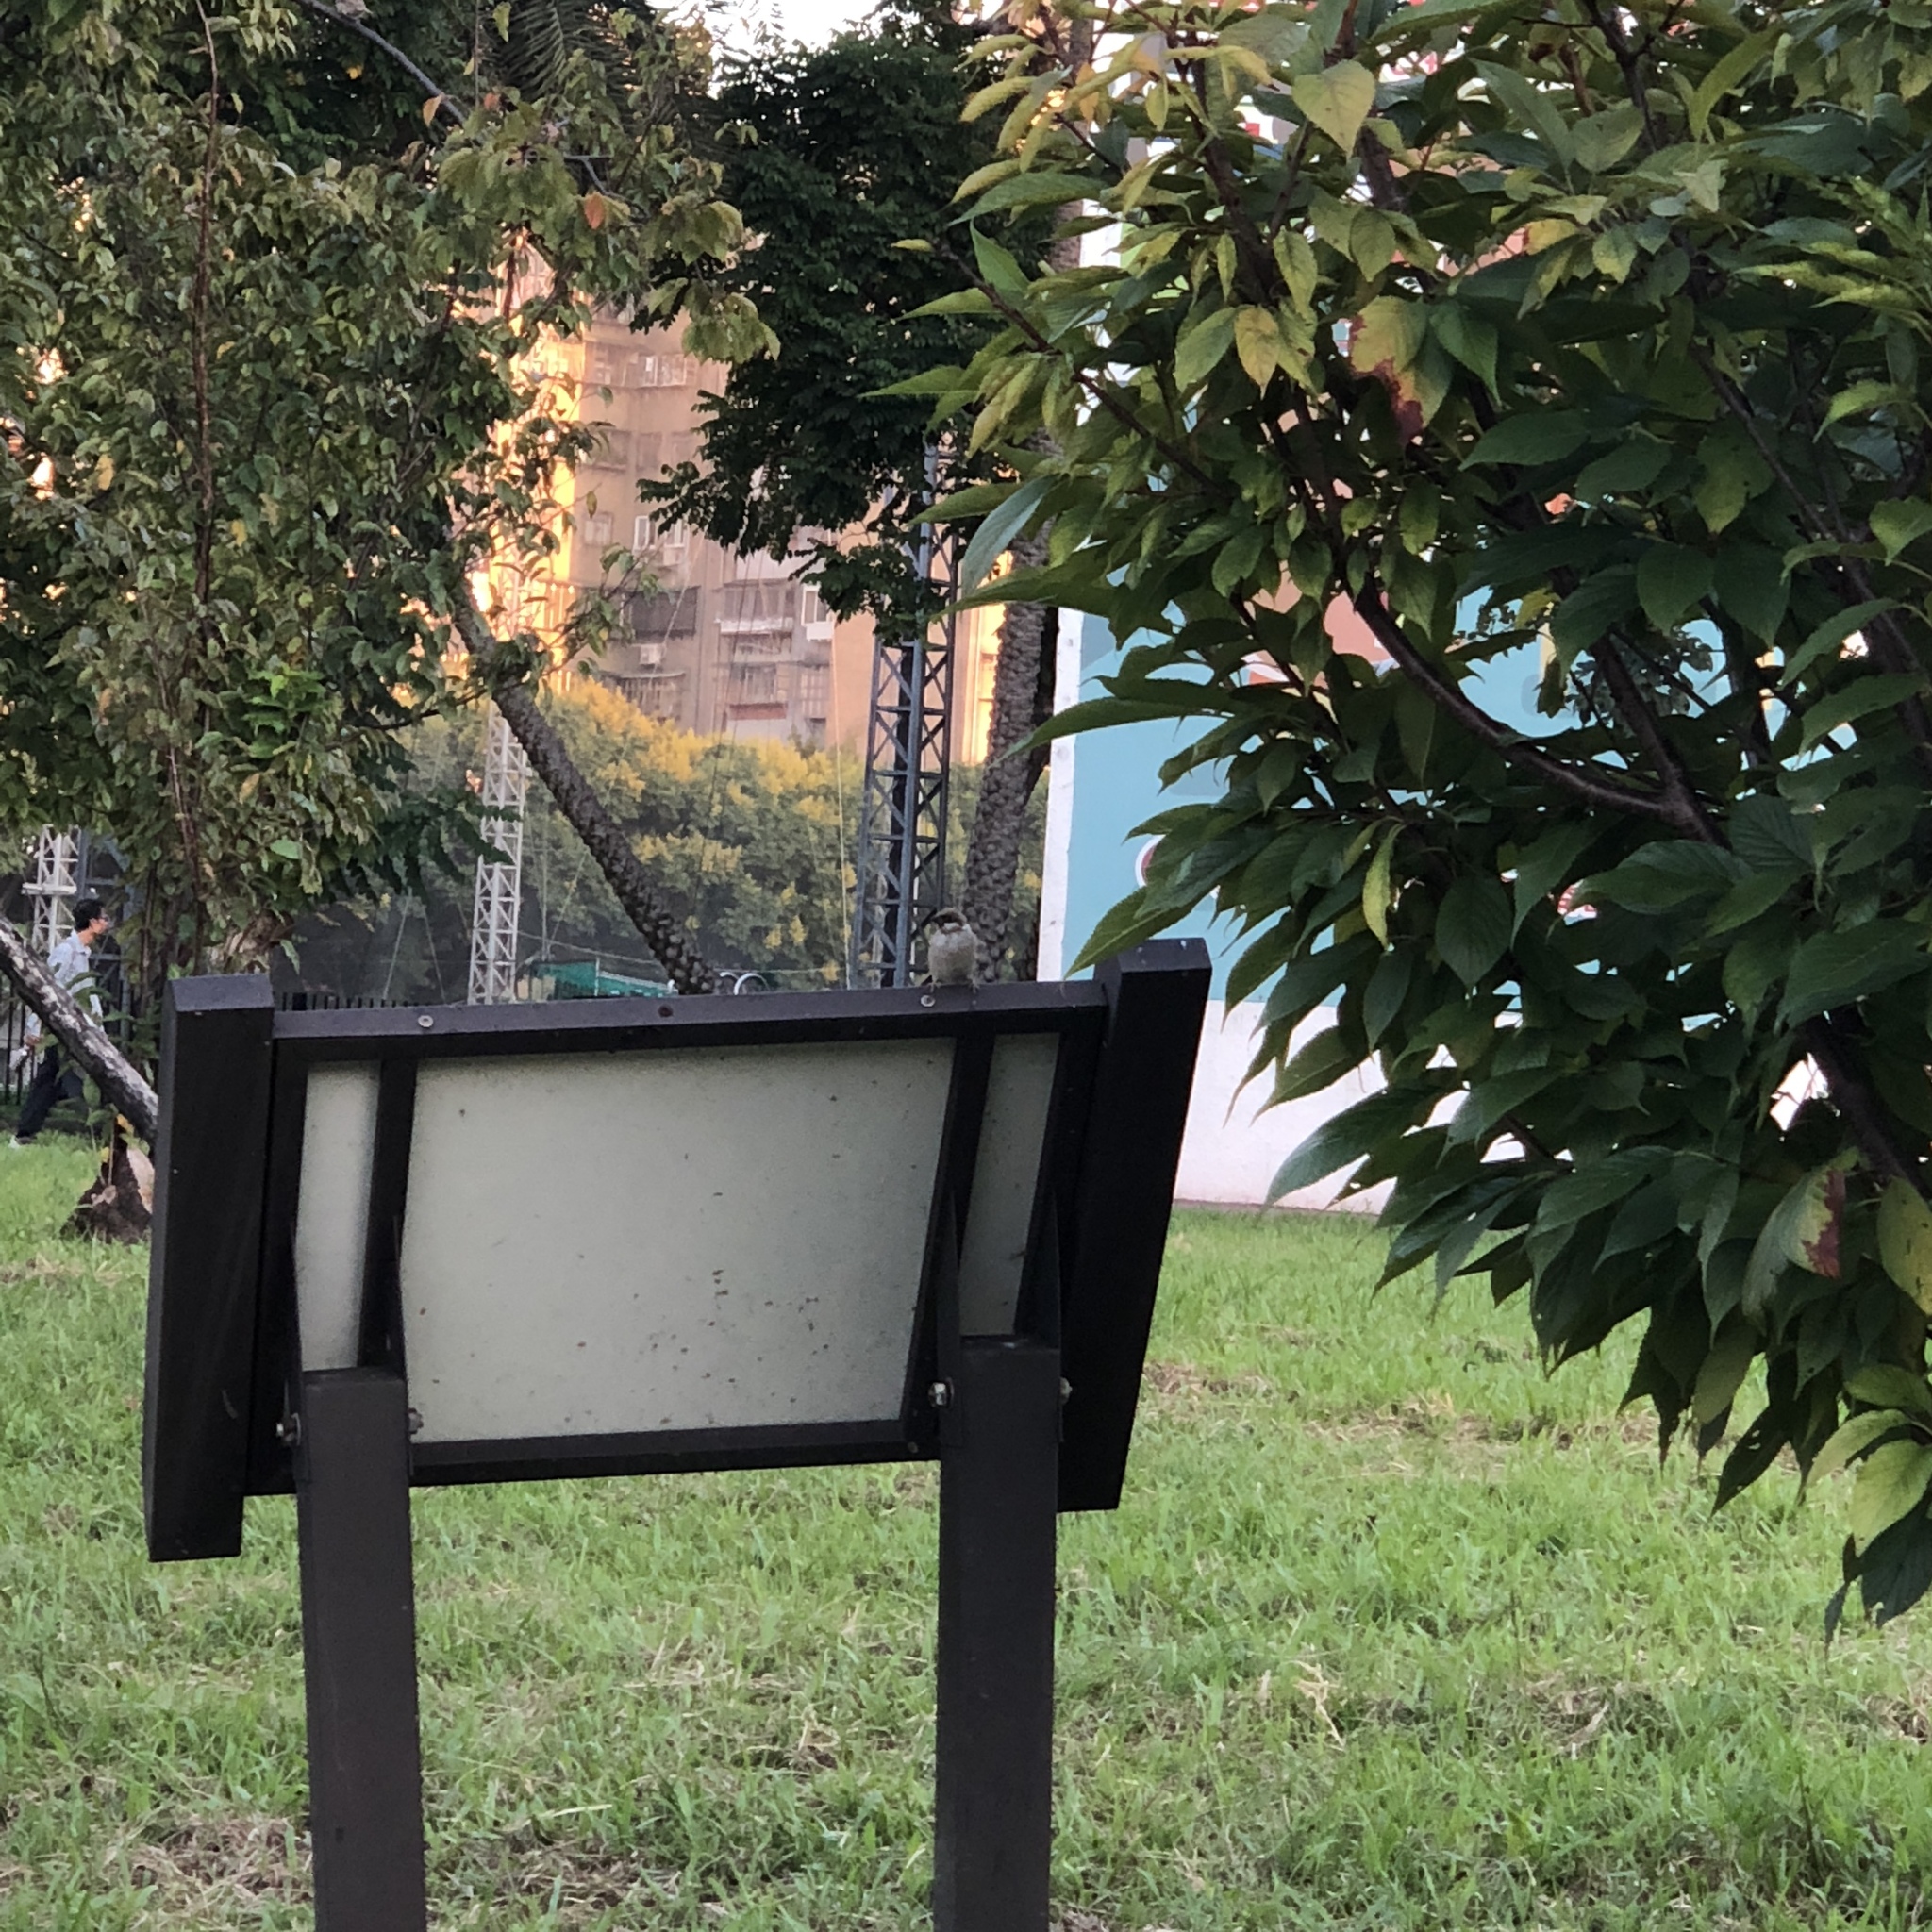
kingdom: Animalia
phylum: Chordata
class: Aves
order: Passeriformes
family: Passeridae
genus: Passer
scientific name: Passer montanus
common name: Eurasian tree sparrow
